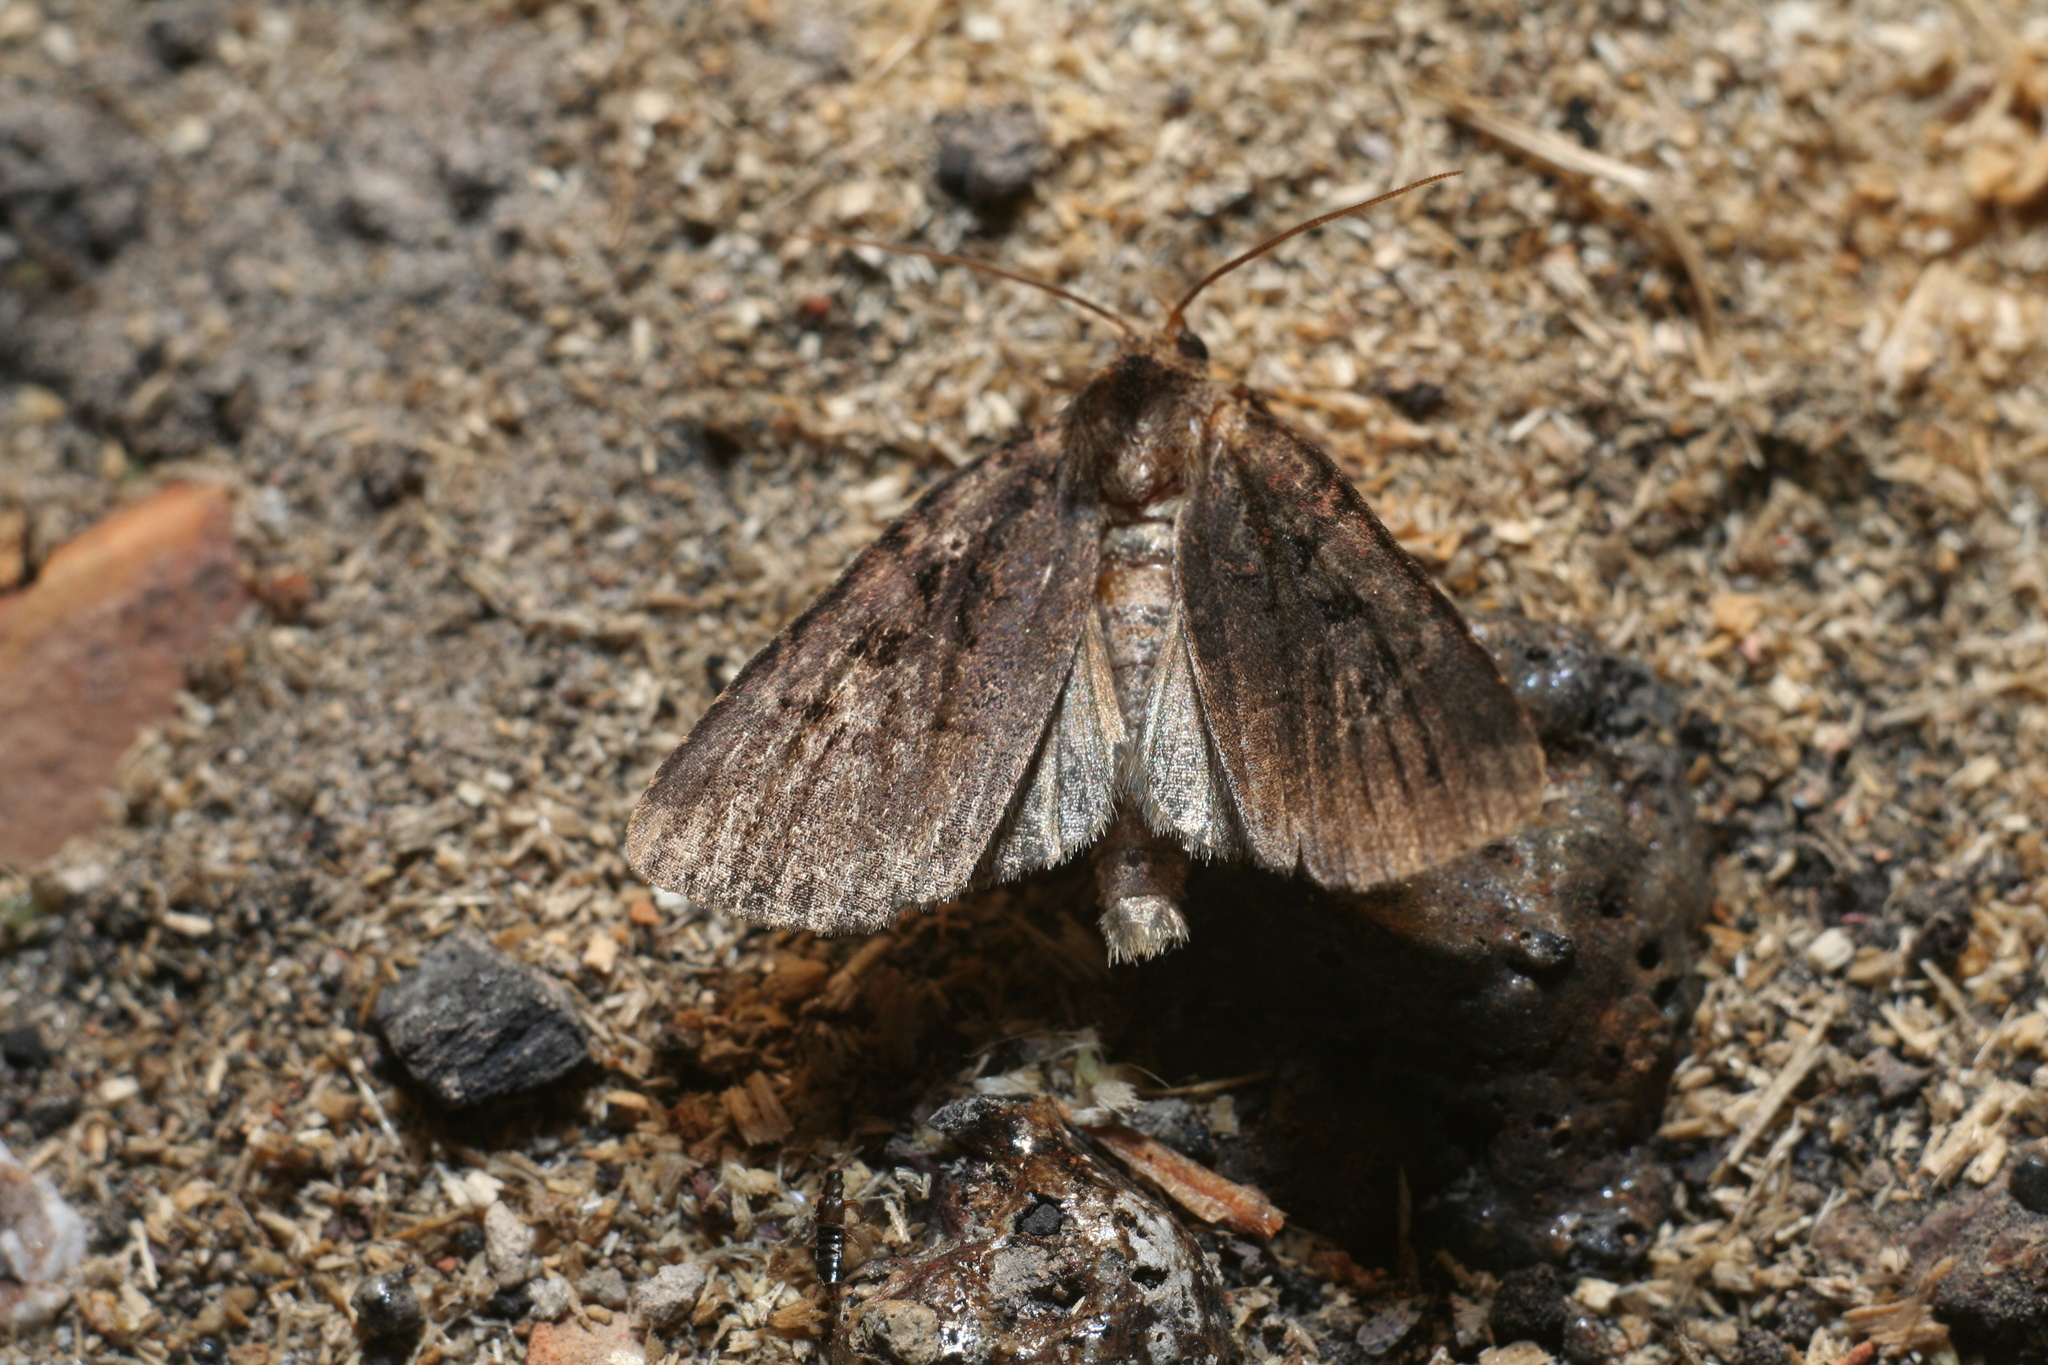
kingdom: Animalia
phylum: Arthropoda
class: Insecta
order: Lepidoptera
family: Noctuidae
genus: Eugraphe
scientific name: Eugraphe sigma
